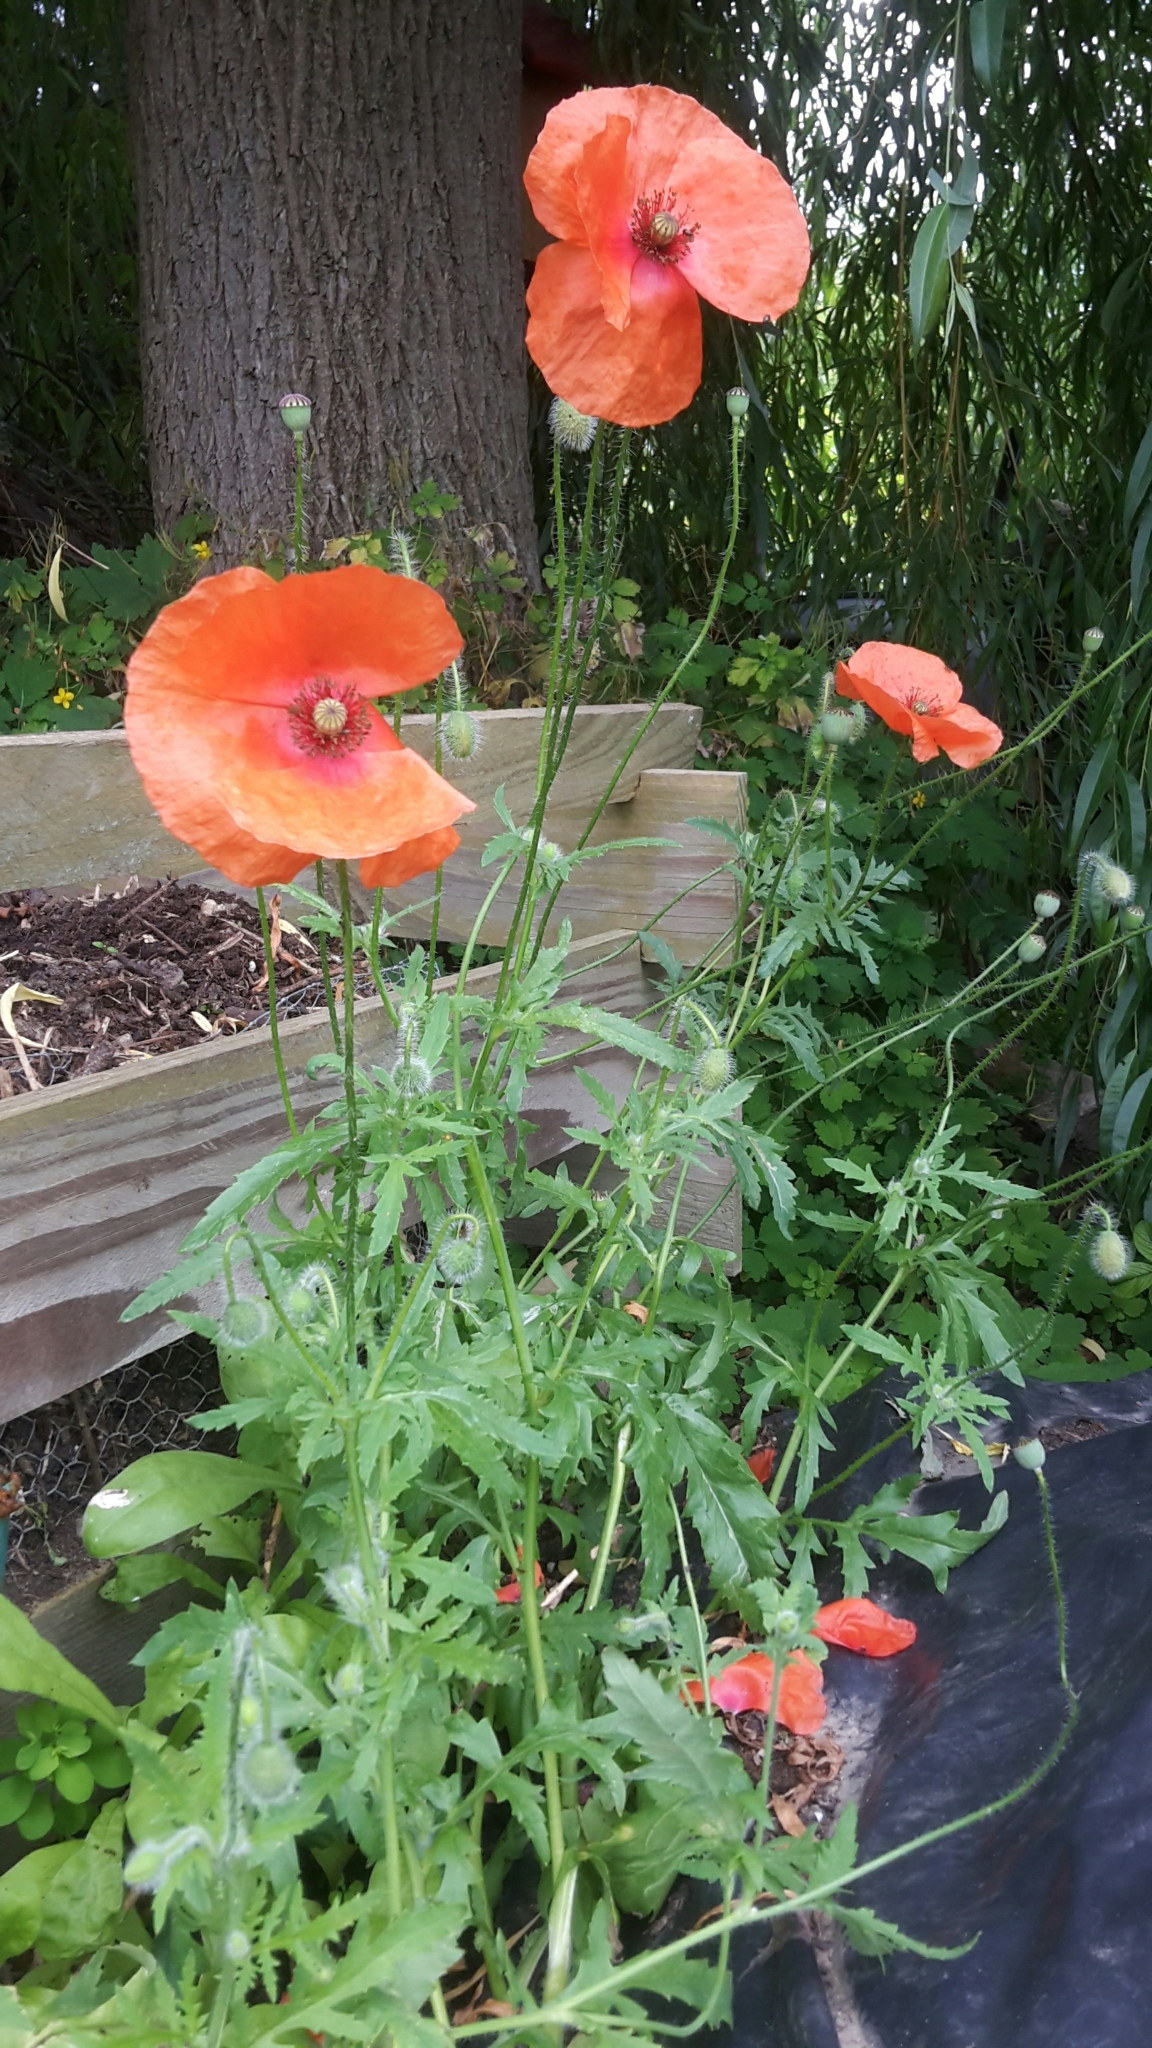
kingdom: Plantae
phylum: Tracheophyta
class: Magnoliopsida
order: Ranunculales
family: Papaveraceae
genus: Papaver
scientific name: Papaver rhoeas
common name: Corn poppy
